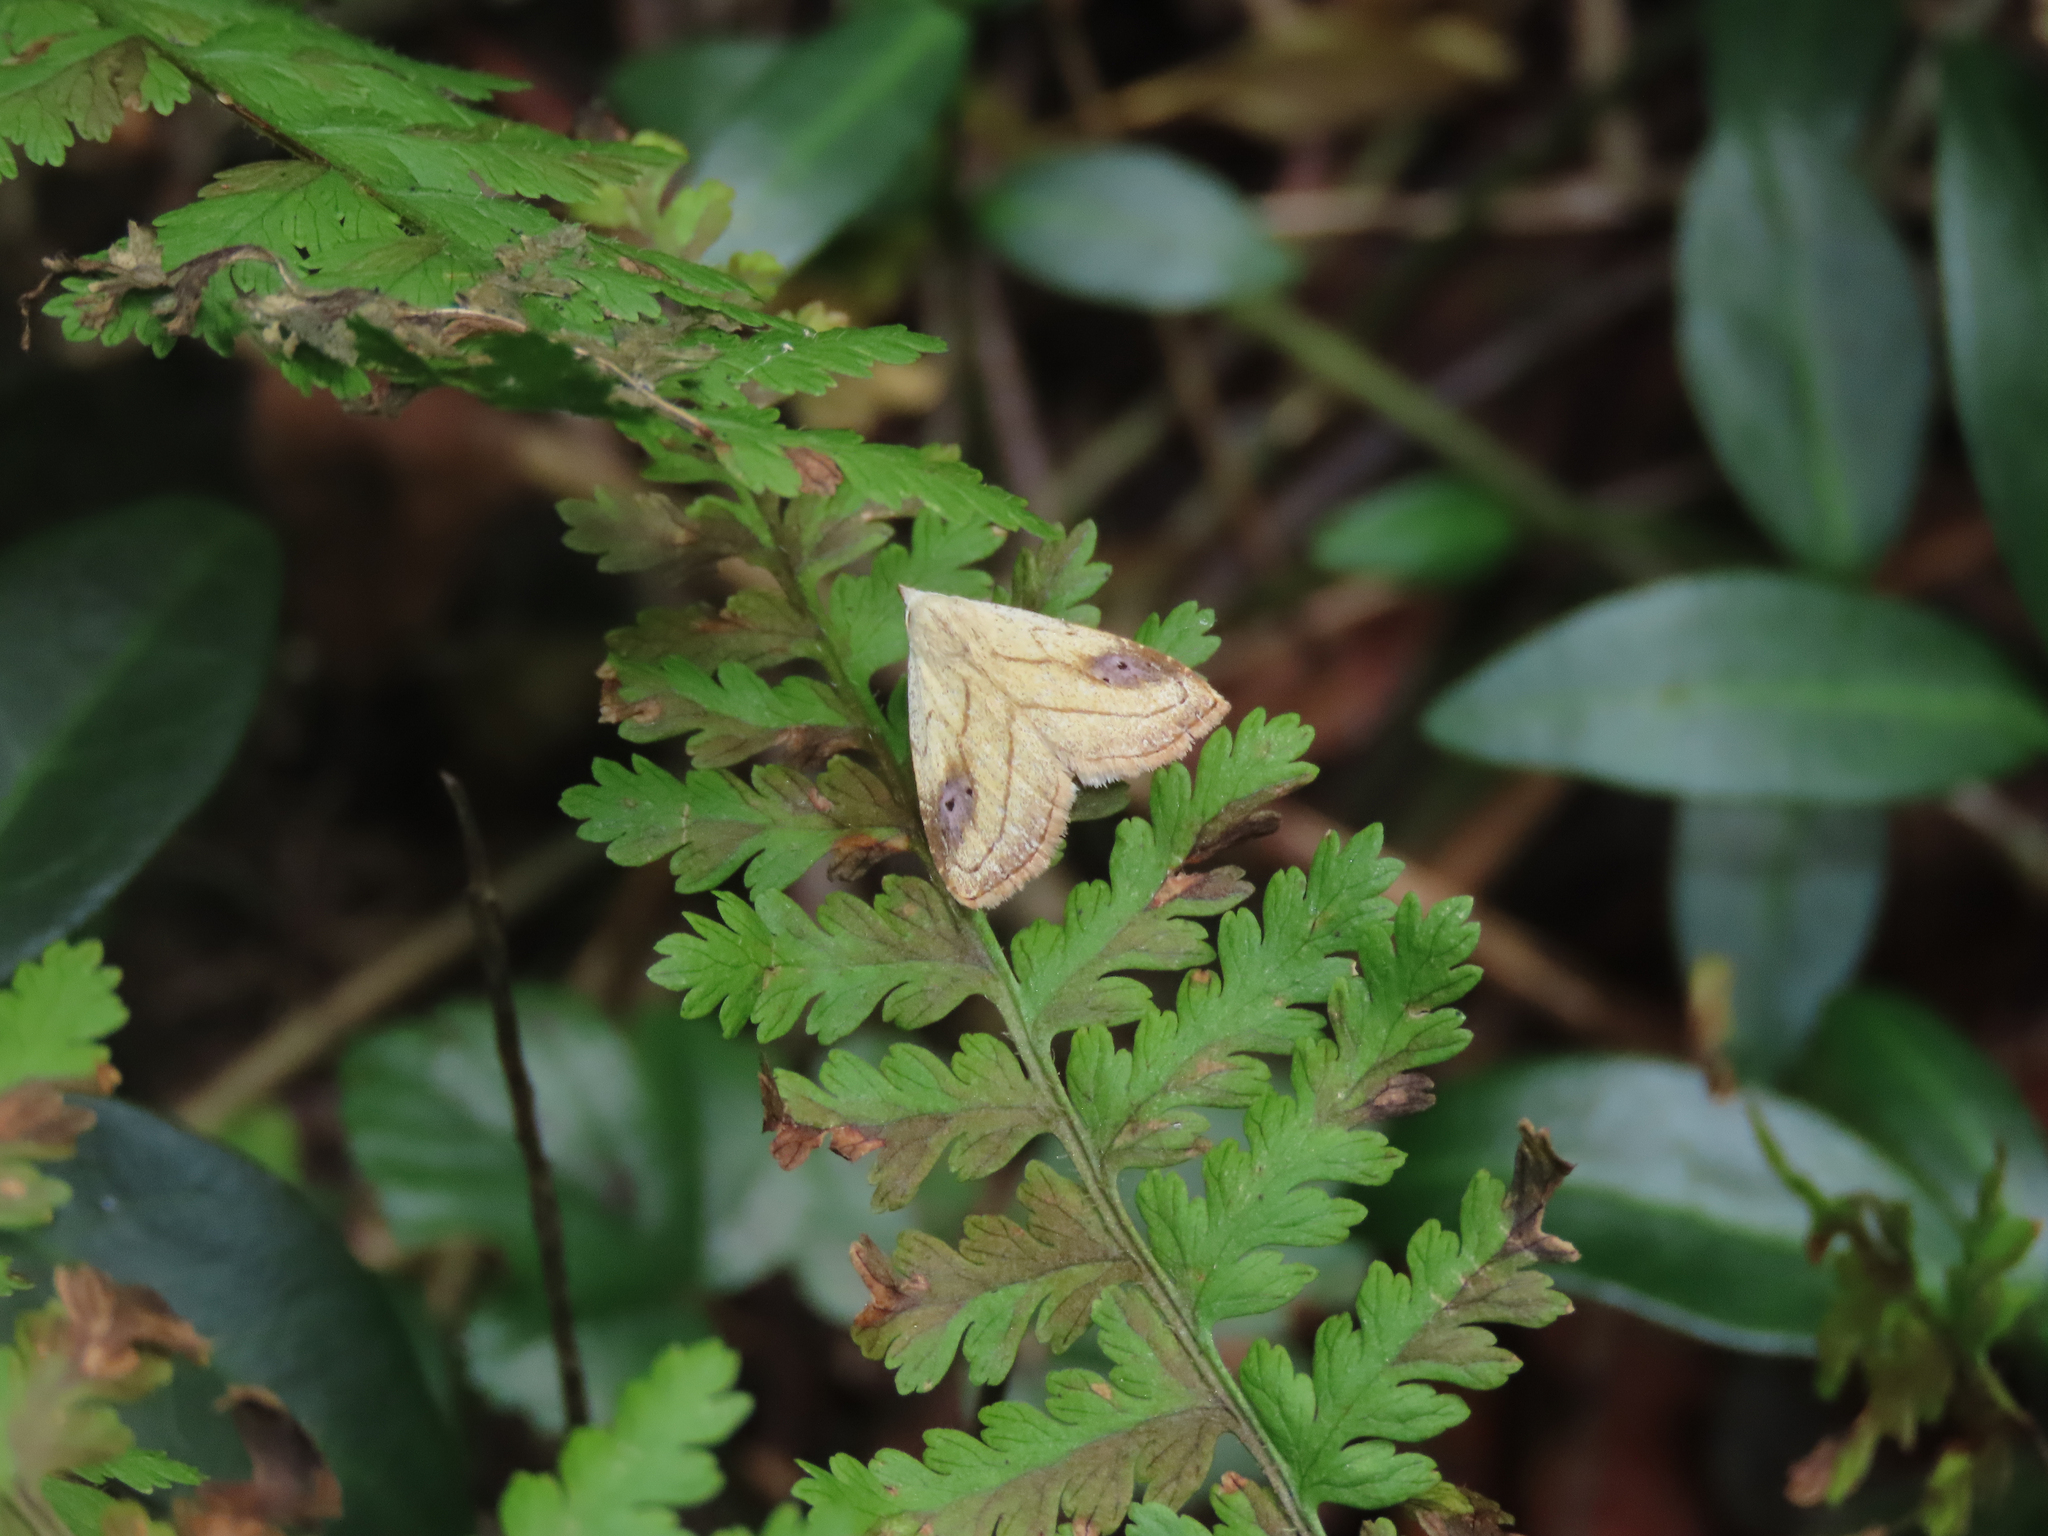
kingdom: Animalia
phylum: Arthropoda
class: Insecta
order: Lepidoptera
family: Erebidae
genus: Rivula
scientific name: Rivula propinqualis
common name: Spotted grass moth
